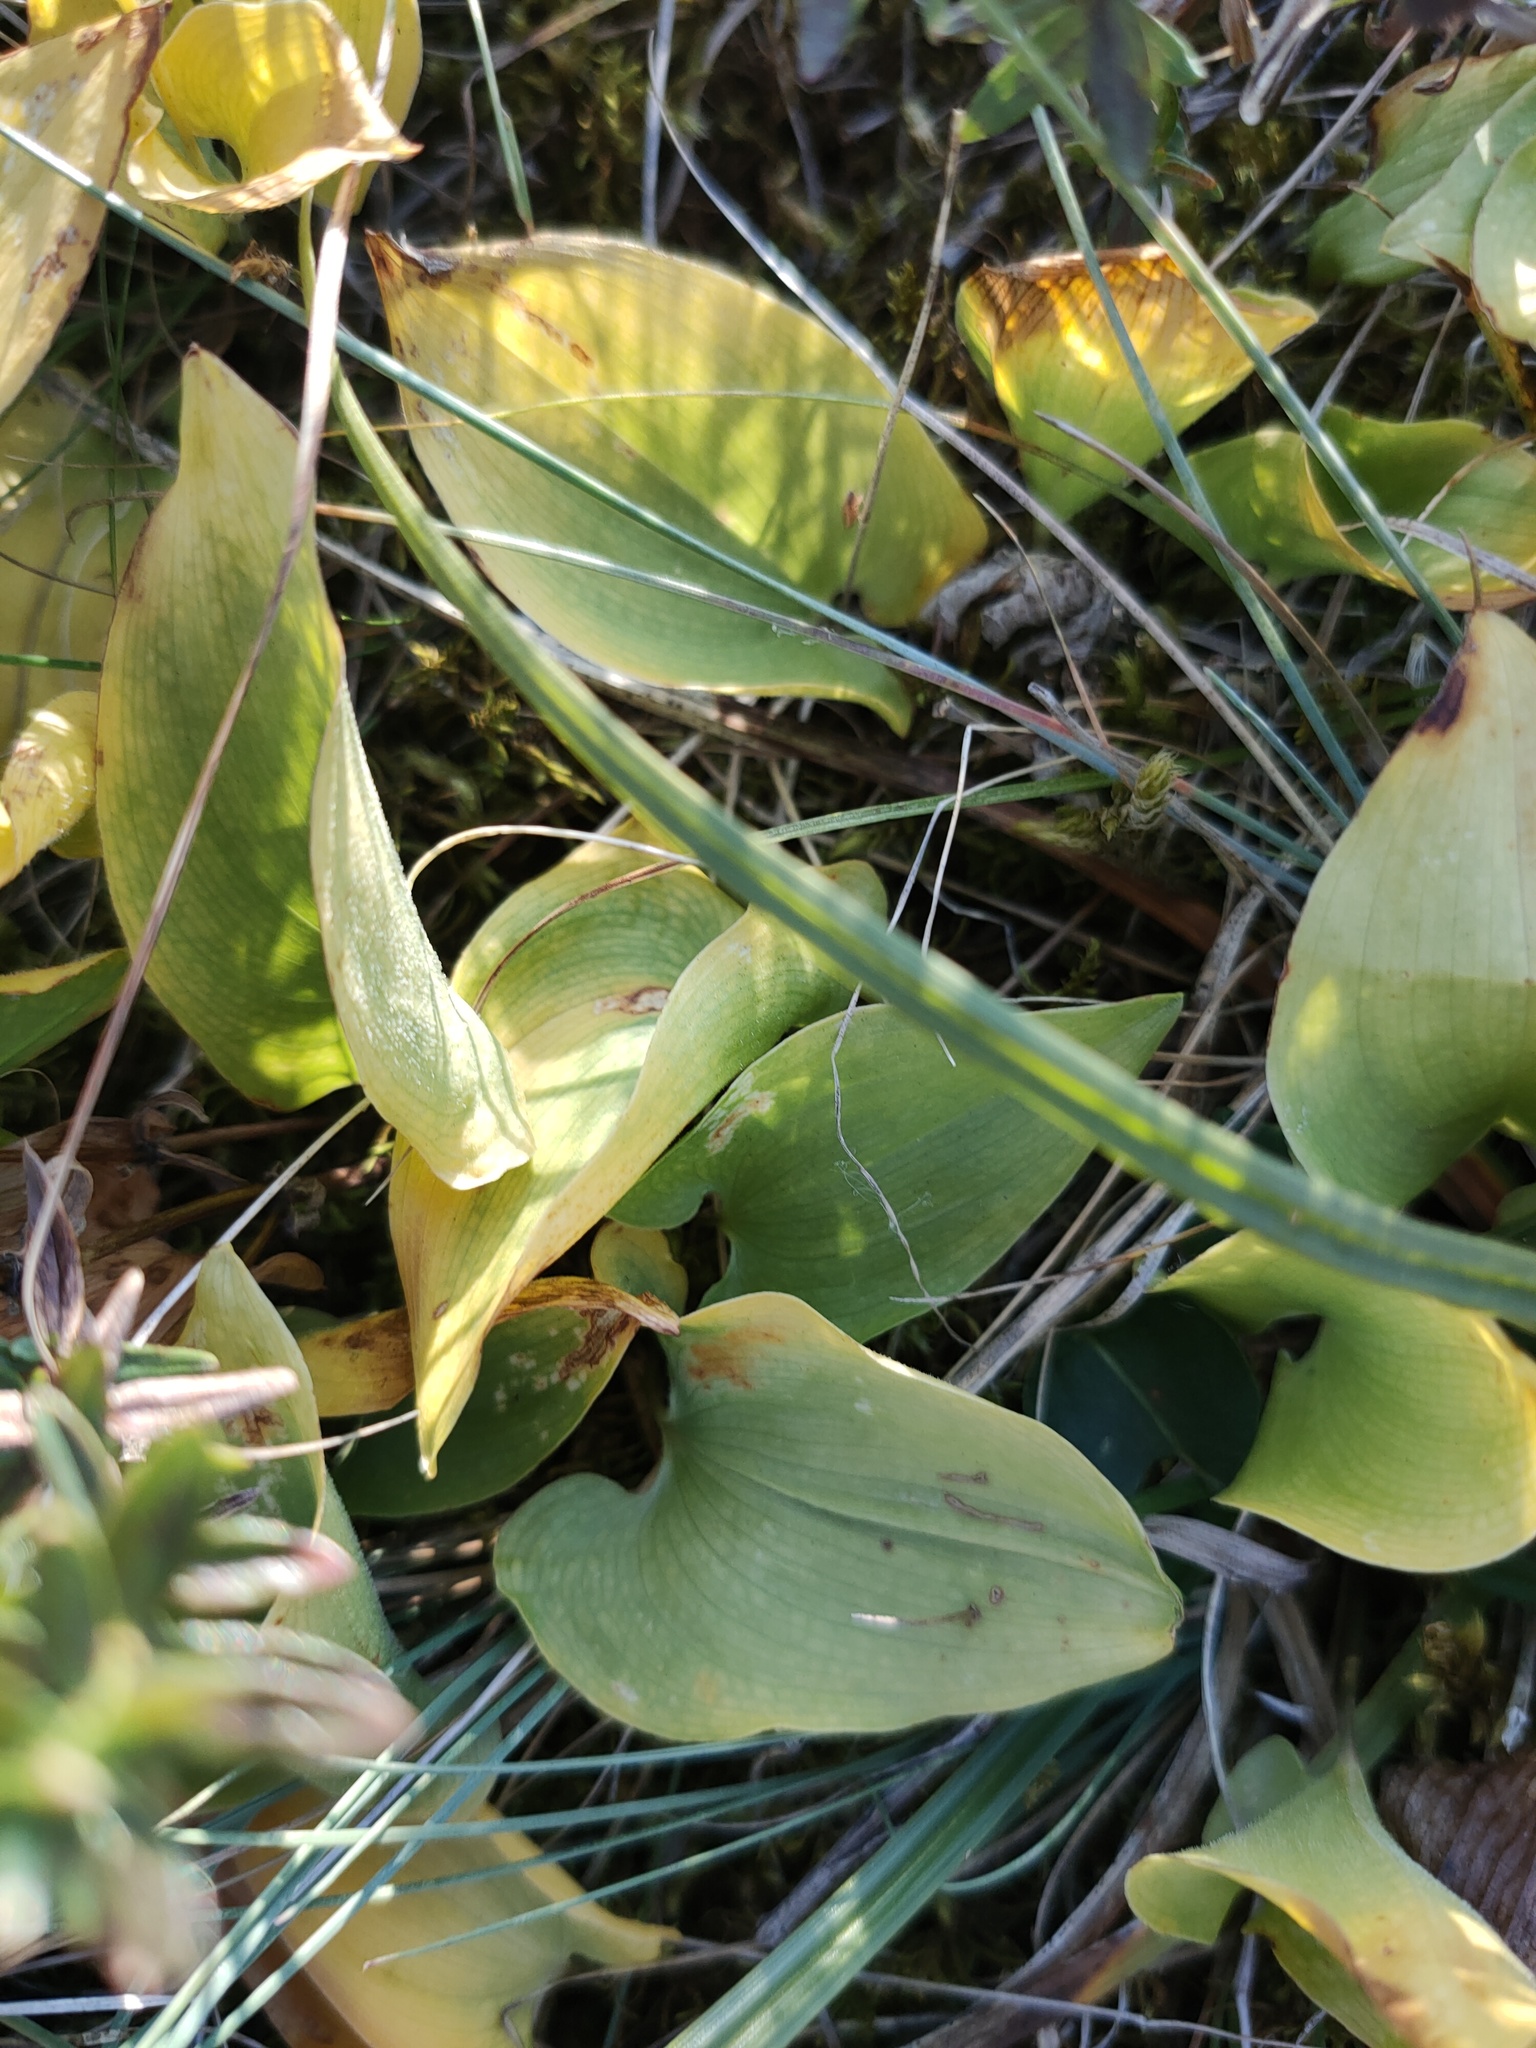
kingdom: Plantae
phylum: Tracheophyta
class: Liliopsida
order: Asparagales
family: Asparagaceae
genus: Maianthemum
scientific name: Maianthemum bifolium
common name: May lily
